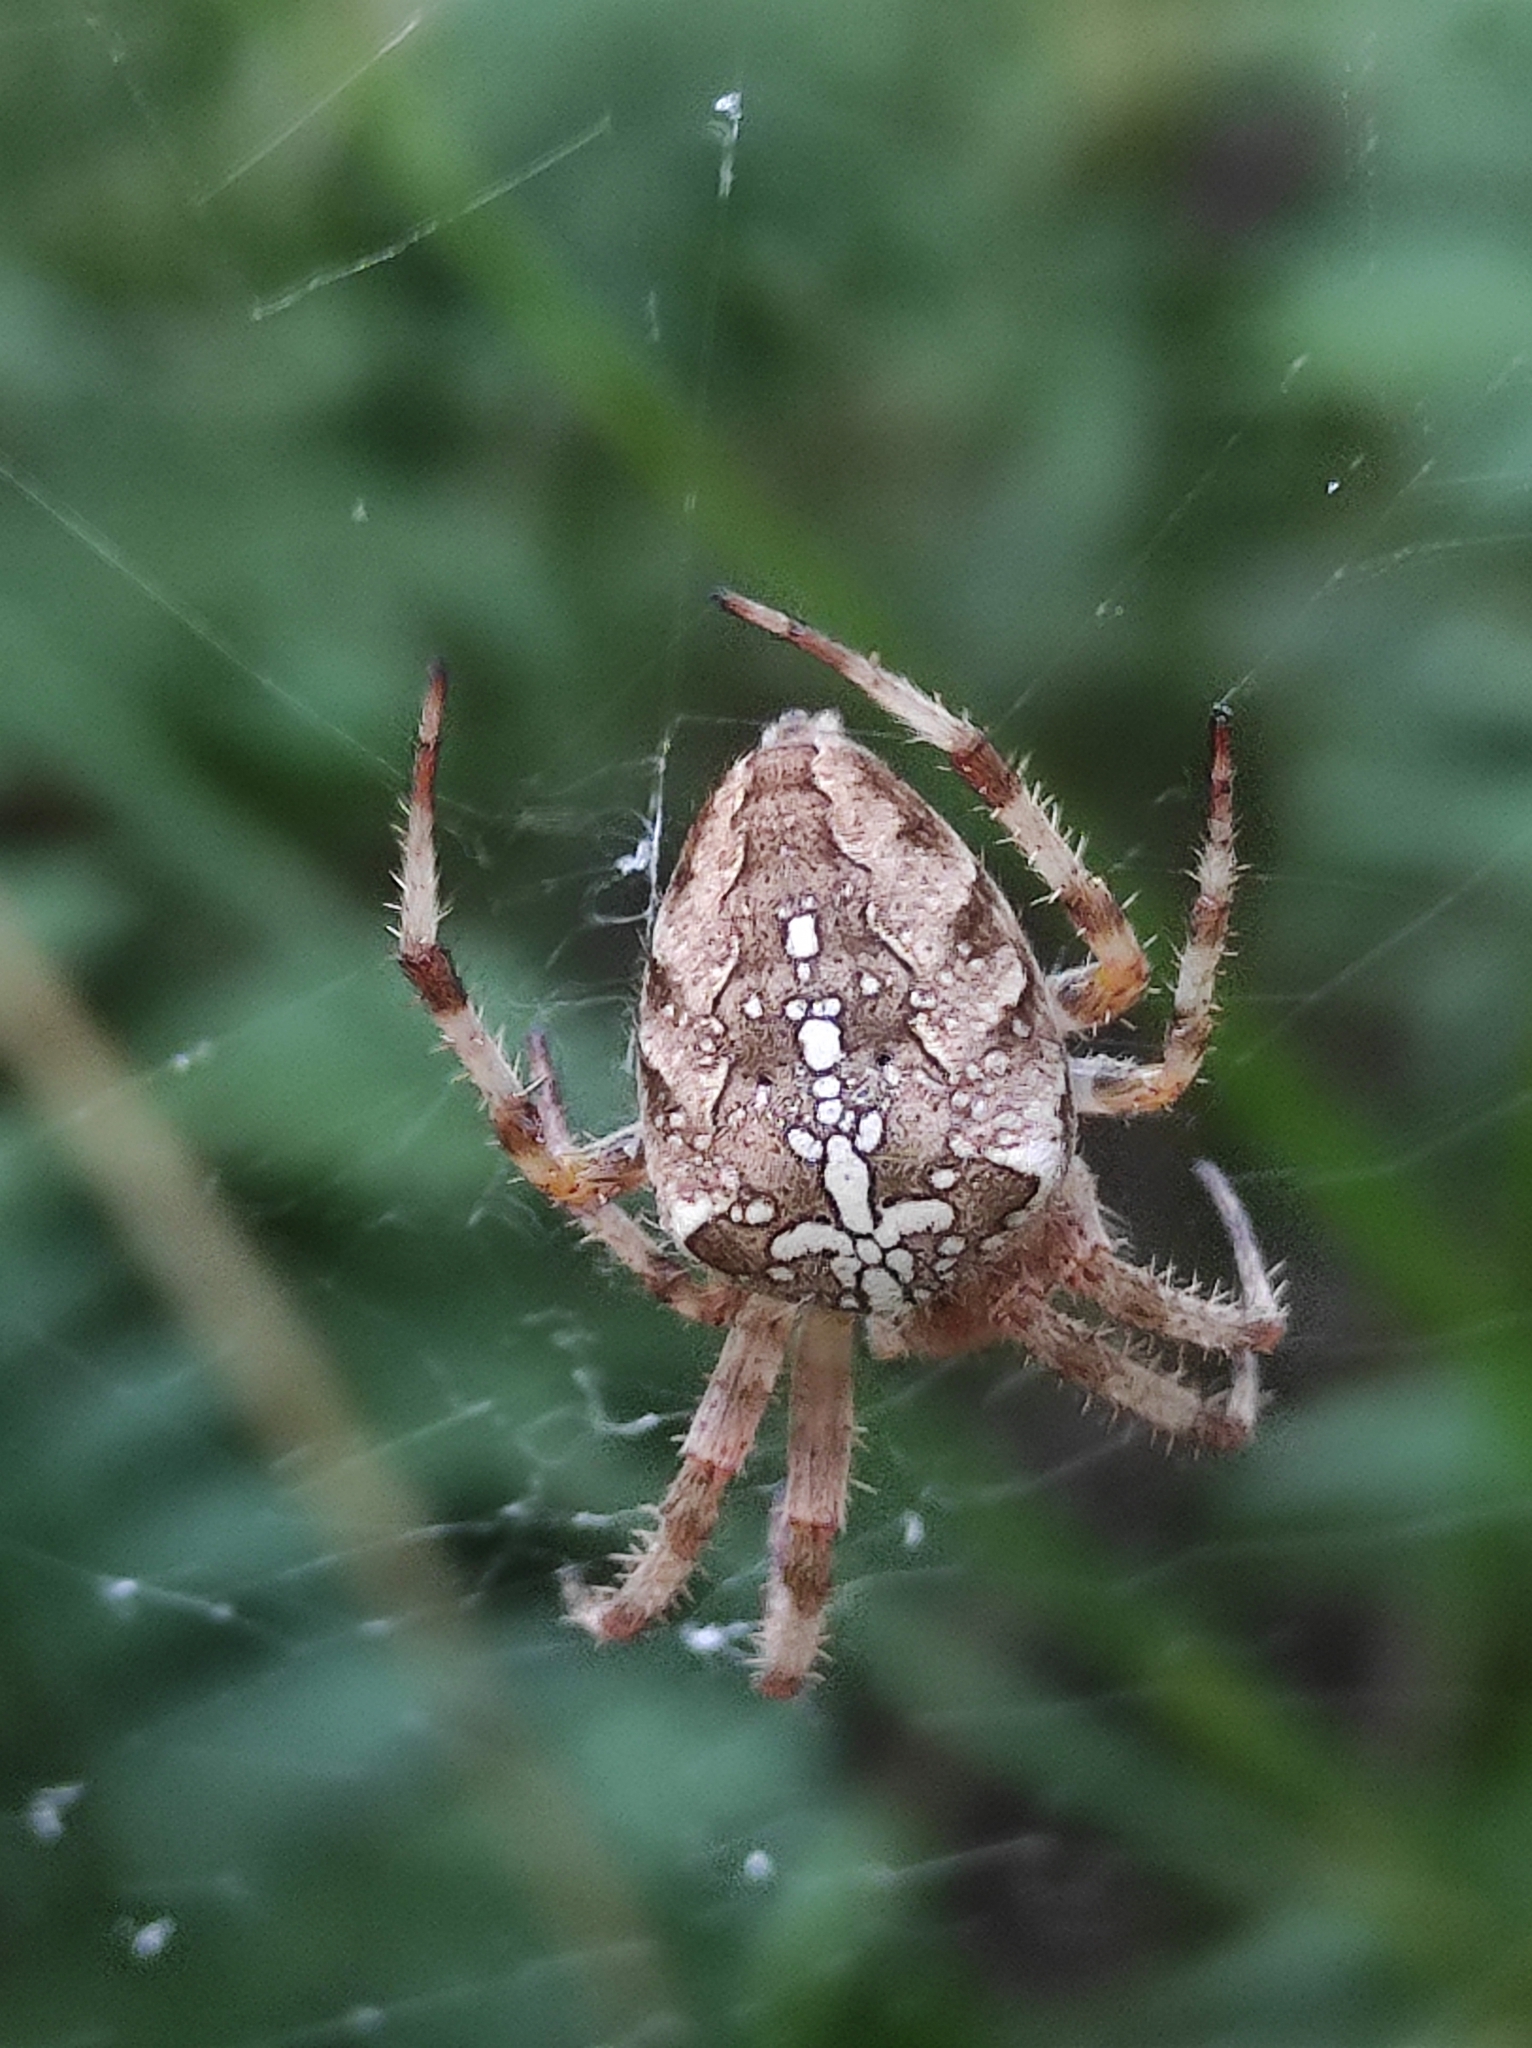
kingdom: Animalia
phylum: Arthropoda
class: Arachnida
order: Araneae
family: Araneidae
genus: Araneus
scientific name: Araneus diadematus
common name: Cross orbweaver
